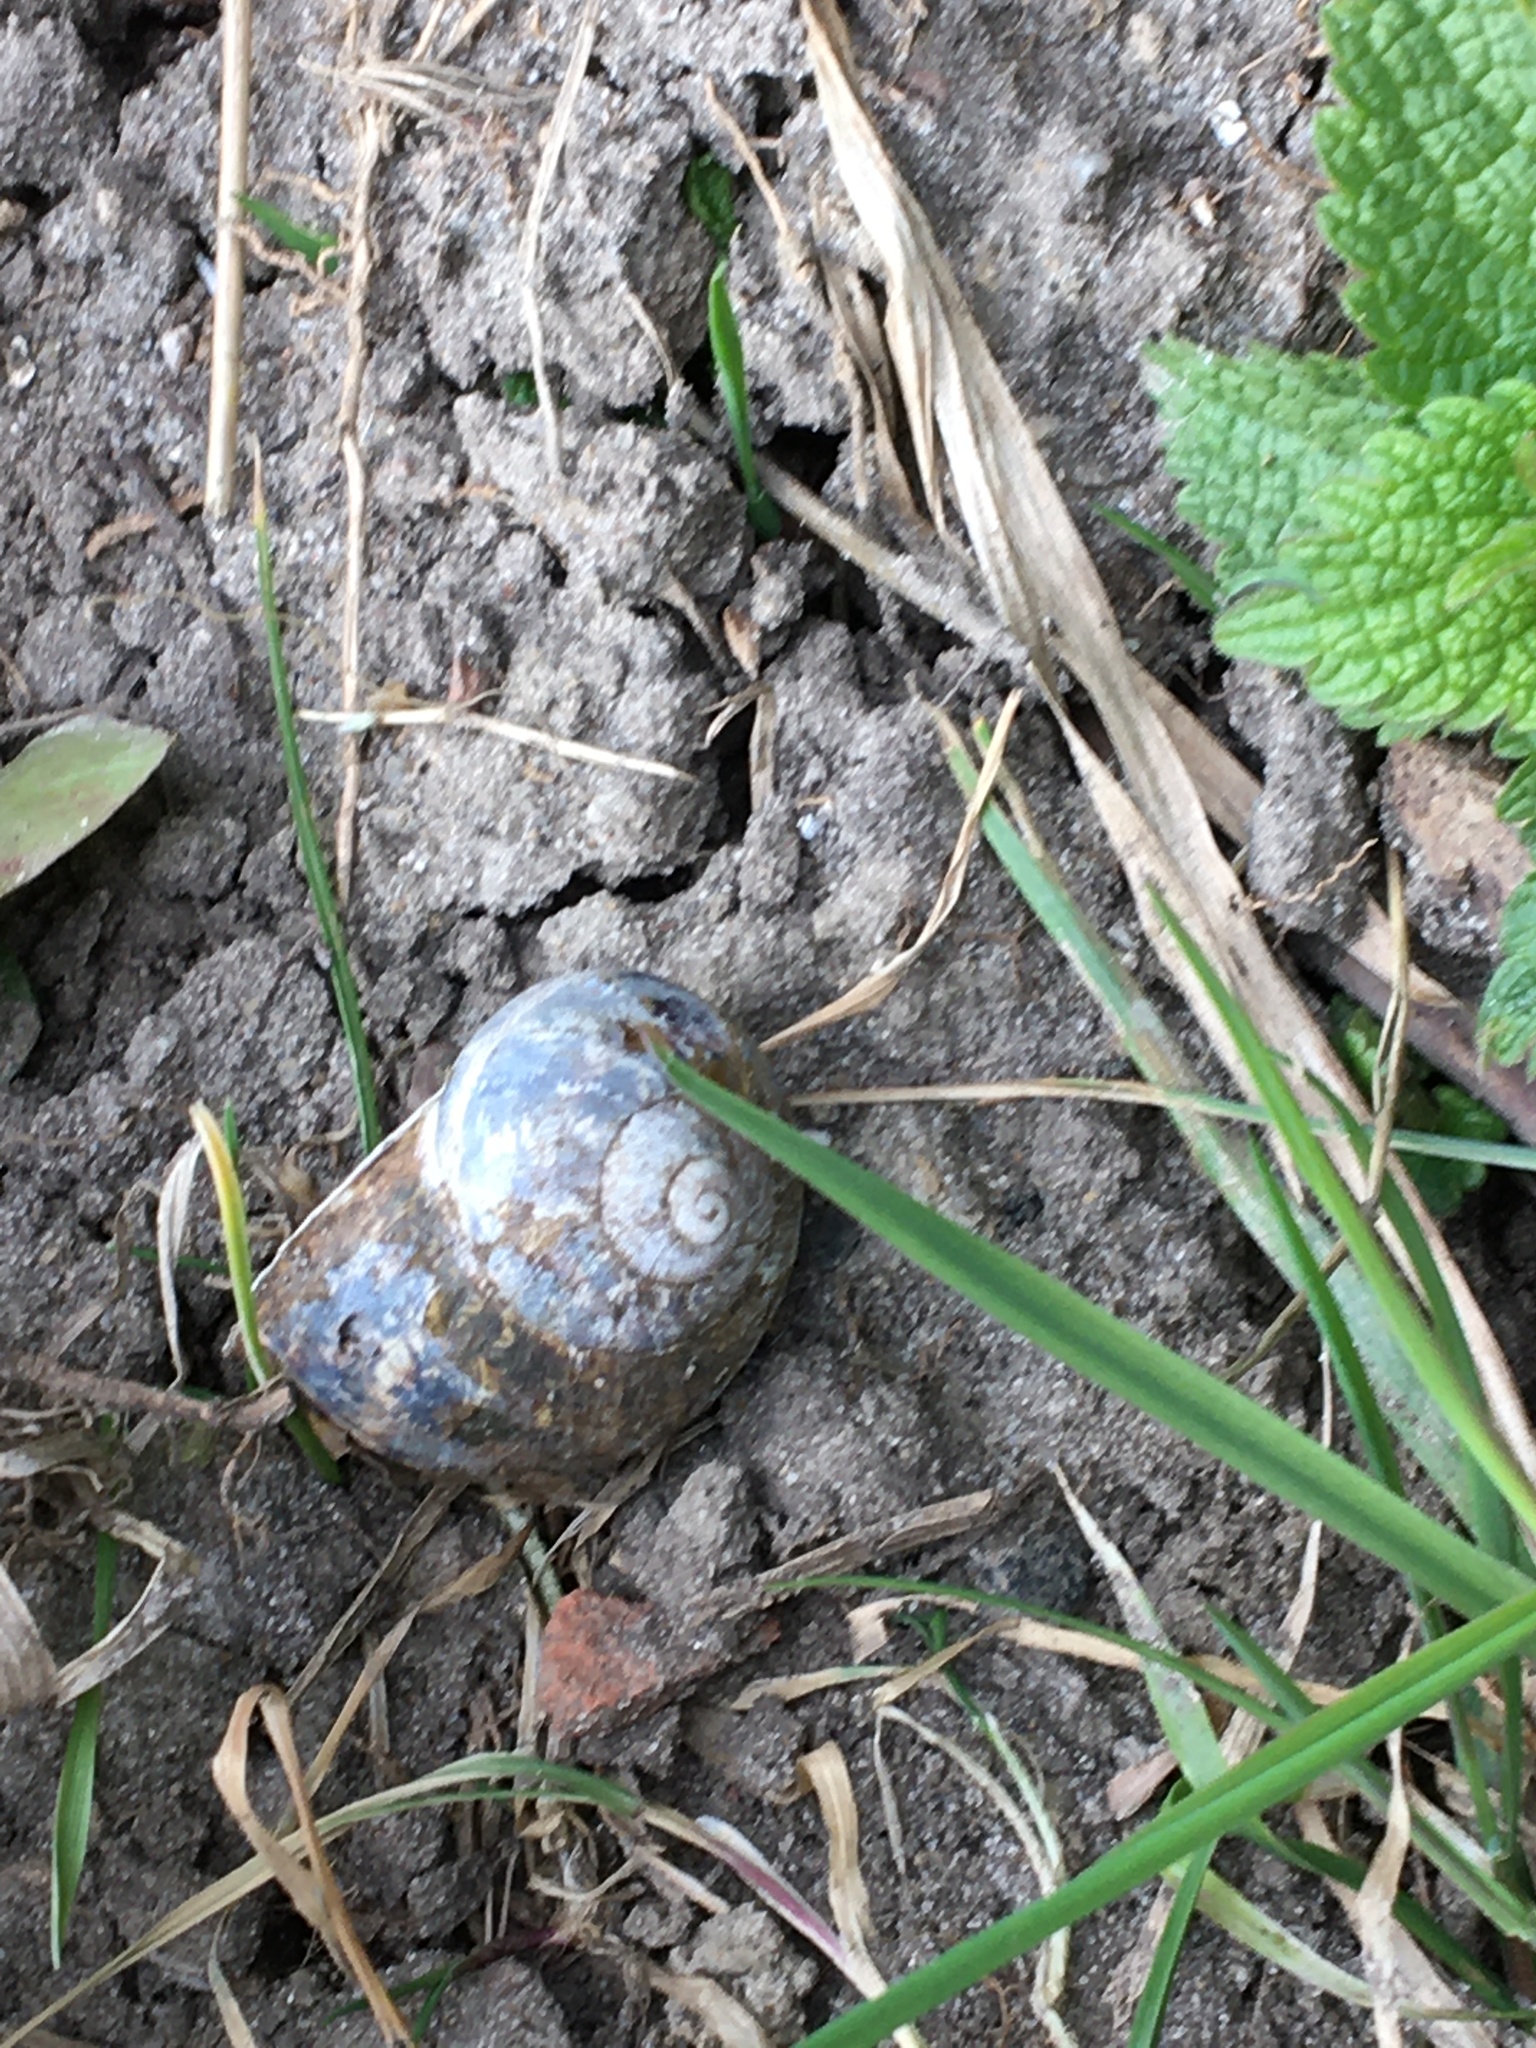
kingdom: Animalia
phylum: Mollusca
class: Gastropoda
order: Stylommatophora
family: Helicidae
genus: Cornu
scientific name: Cornu aspersum
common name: Brown garden snail
